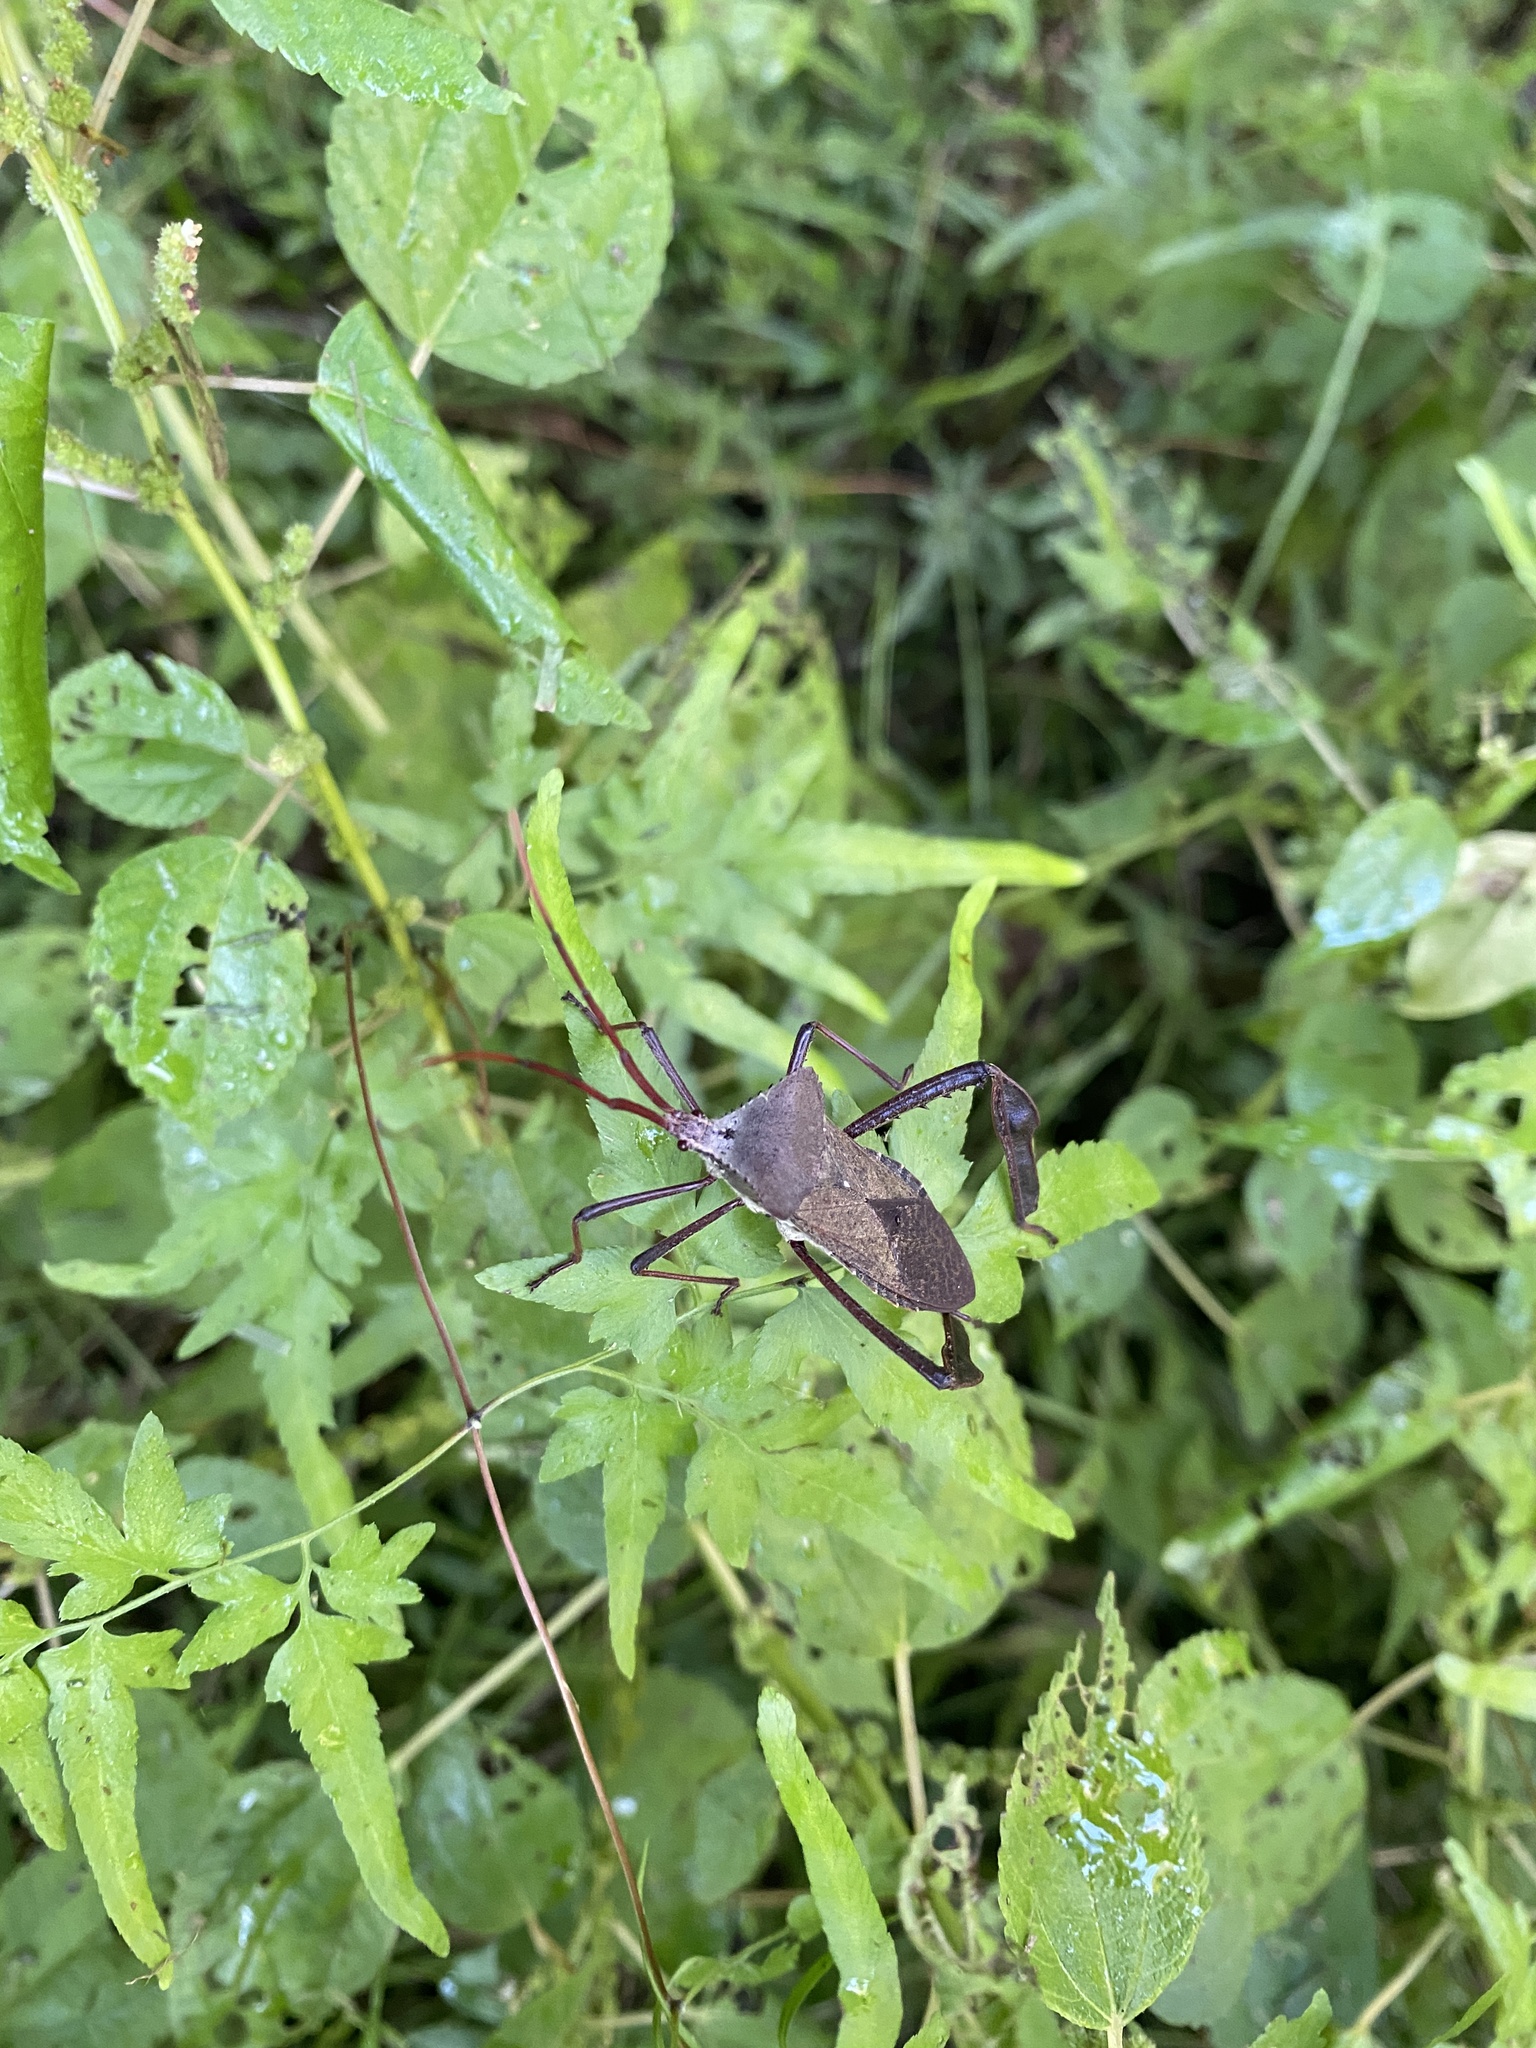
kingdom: Animalia
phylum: Arthropoda
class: Insecta
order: Hemiptera
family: Coreidae
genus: Acanthocephala
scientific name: Acanthocephala declivis
